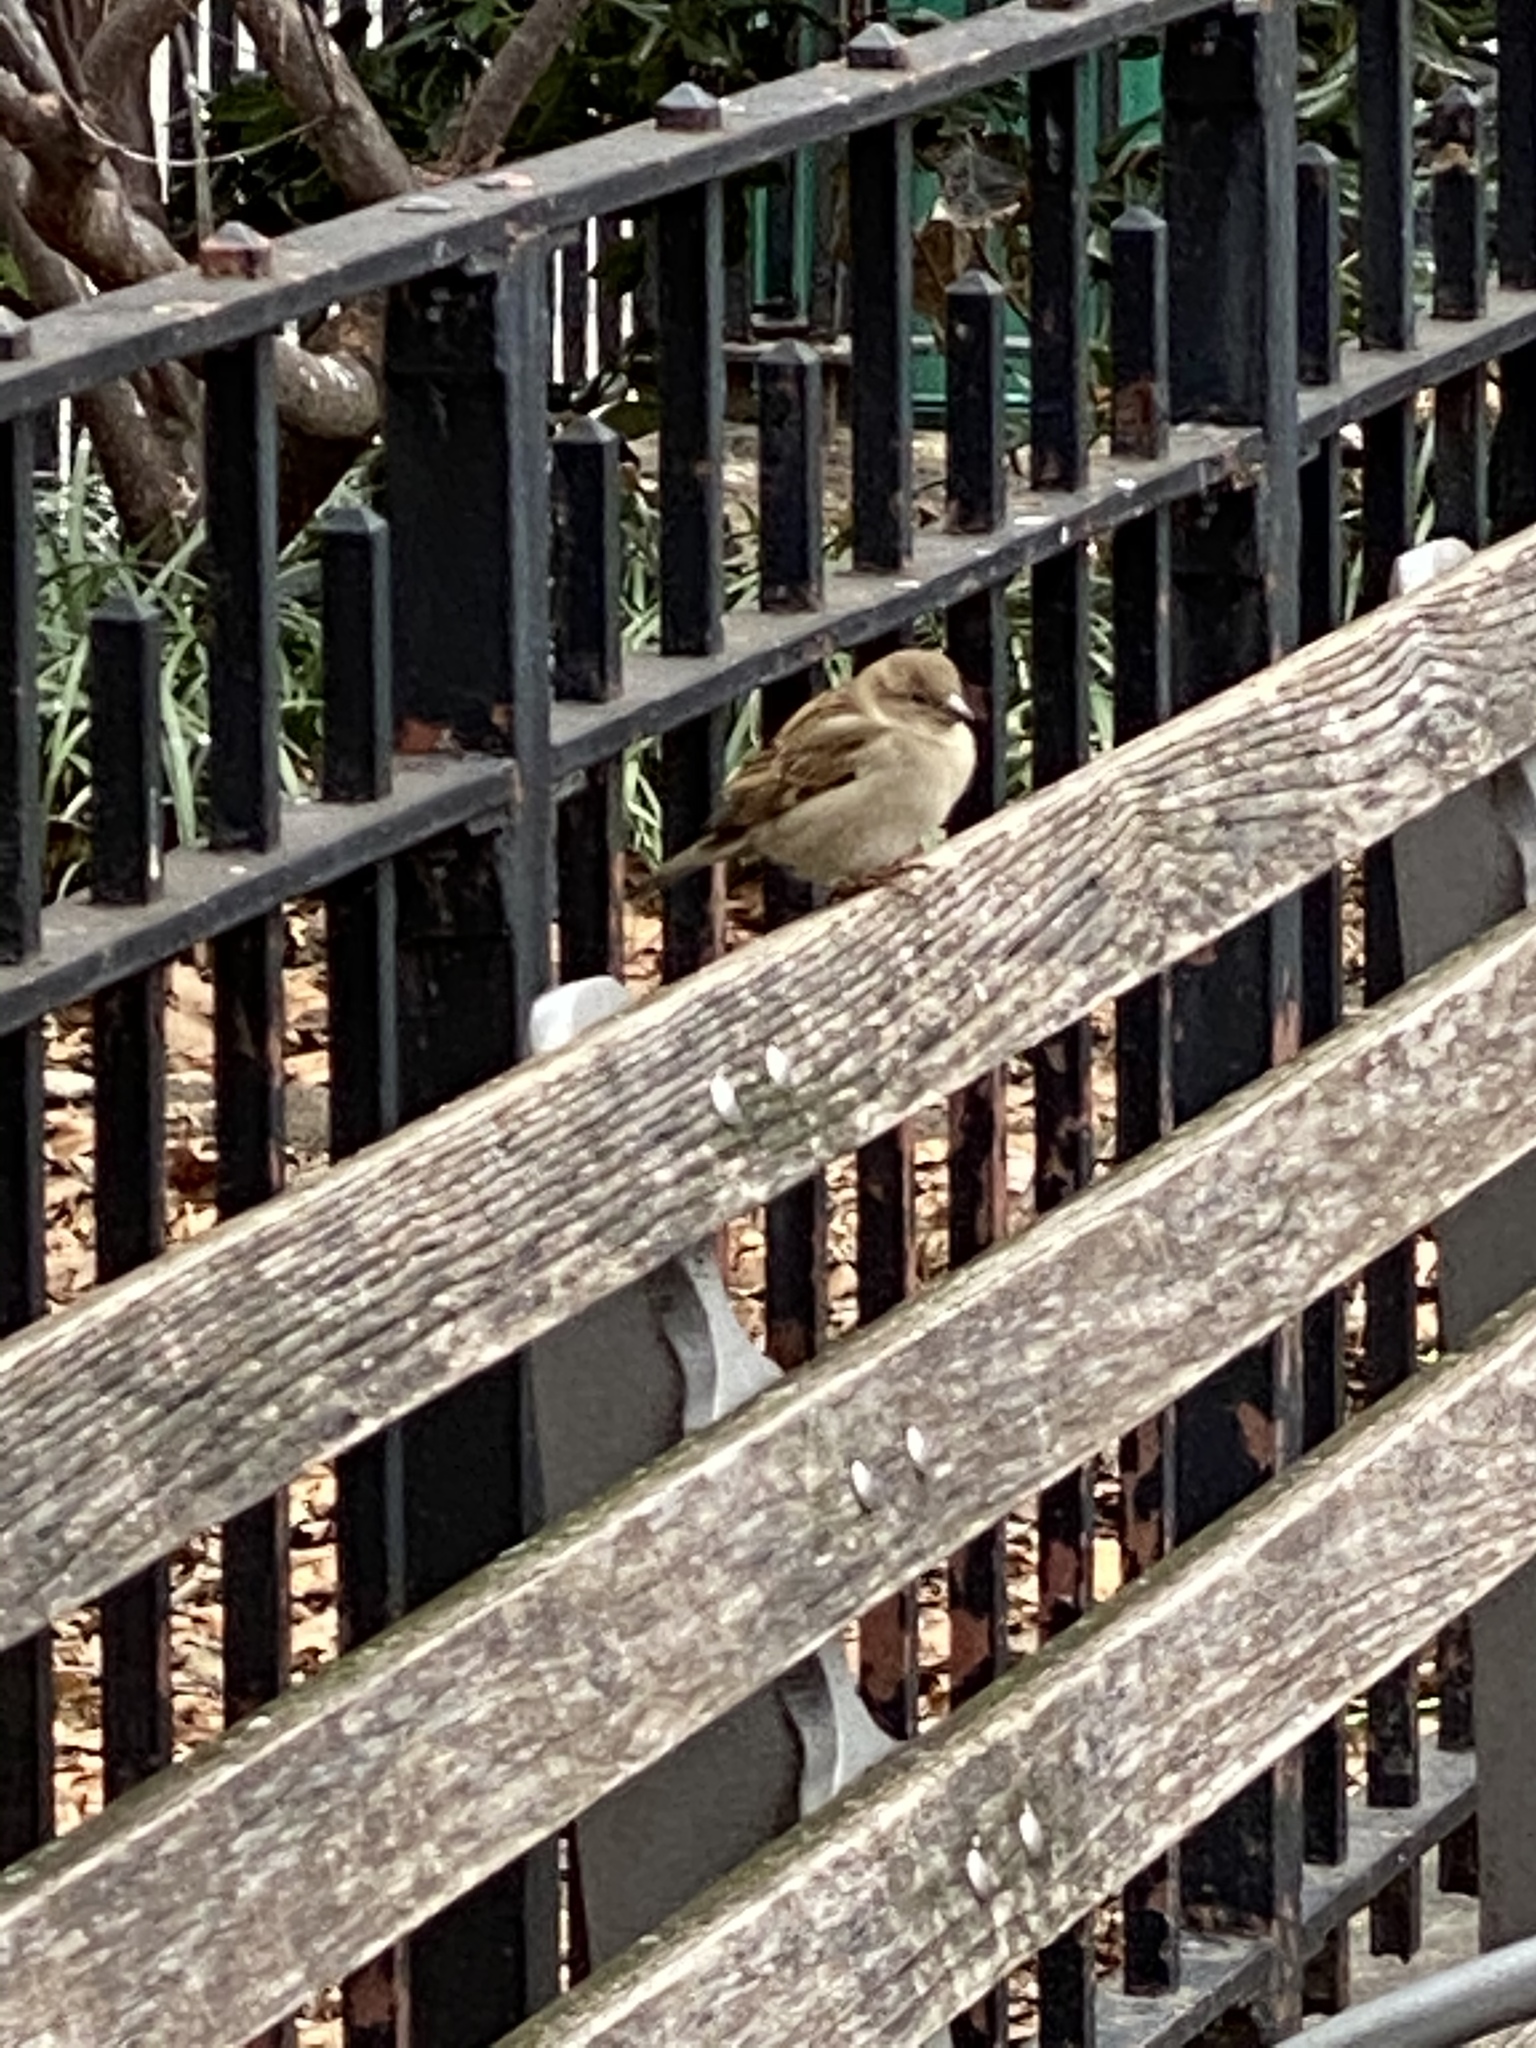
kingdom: Animalia
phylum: Chordata
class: Aves
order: Passeriformes
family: Passeridae
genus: Passer
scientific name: Passer domesticus
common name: House sparrow
